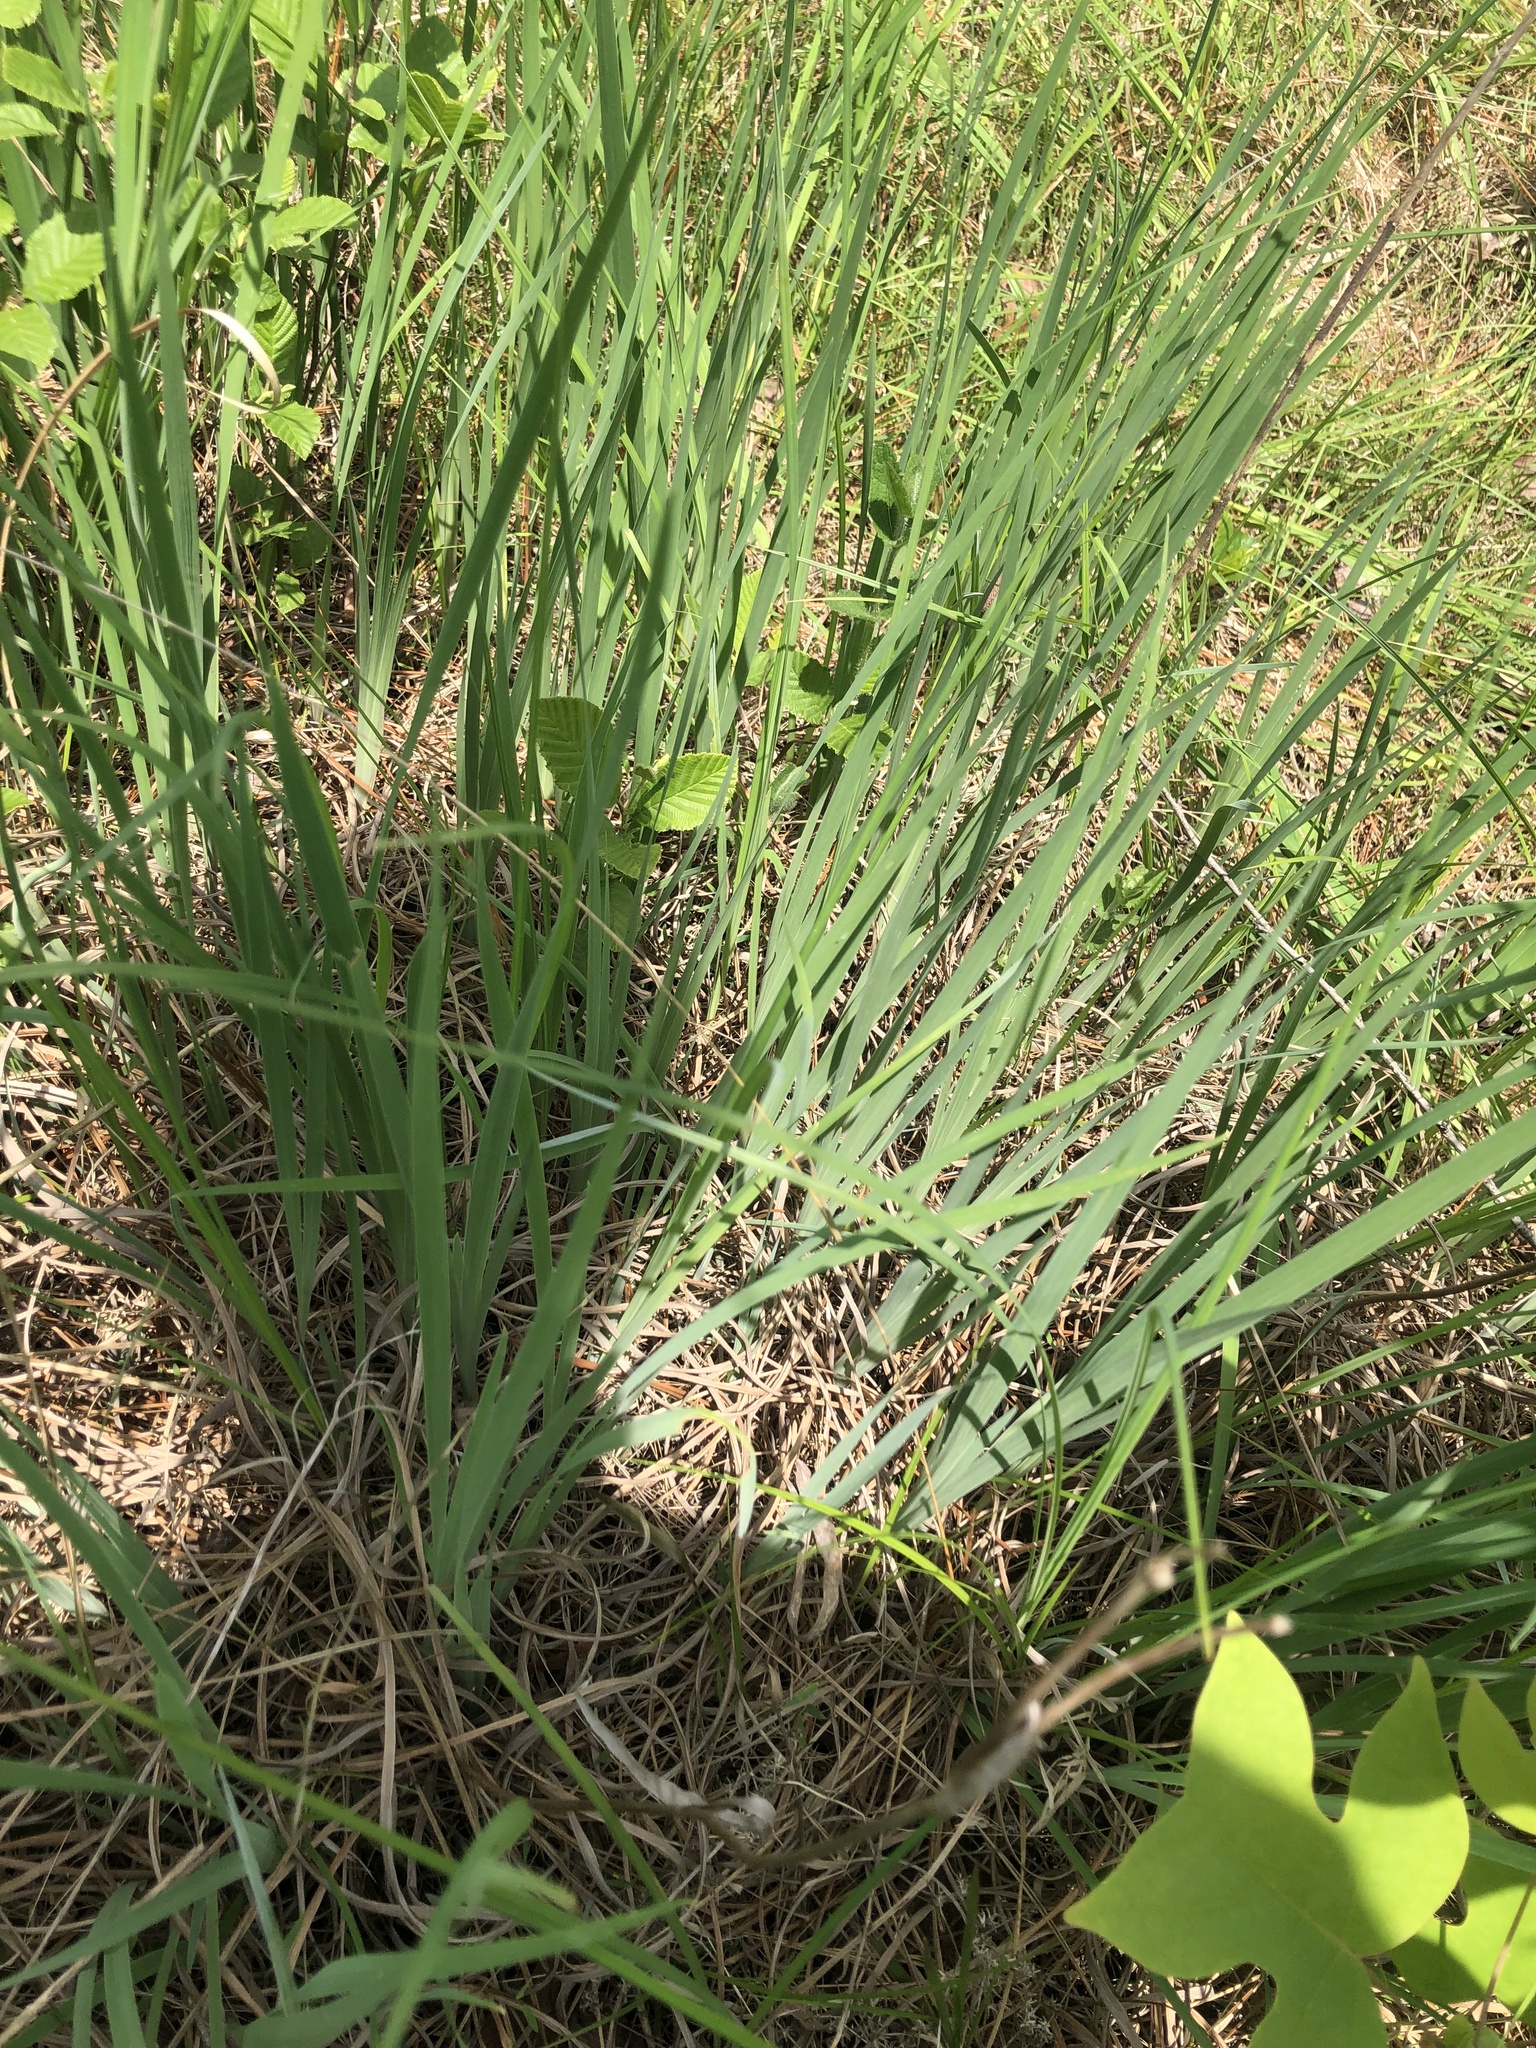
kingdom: Plantae
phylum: Tracheophyta
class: Liliopsida
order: Asparagales
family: Iridaceae
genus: Iris
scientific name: Iris prismatica
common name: Slender blue flag
